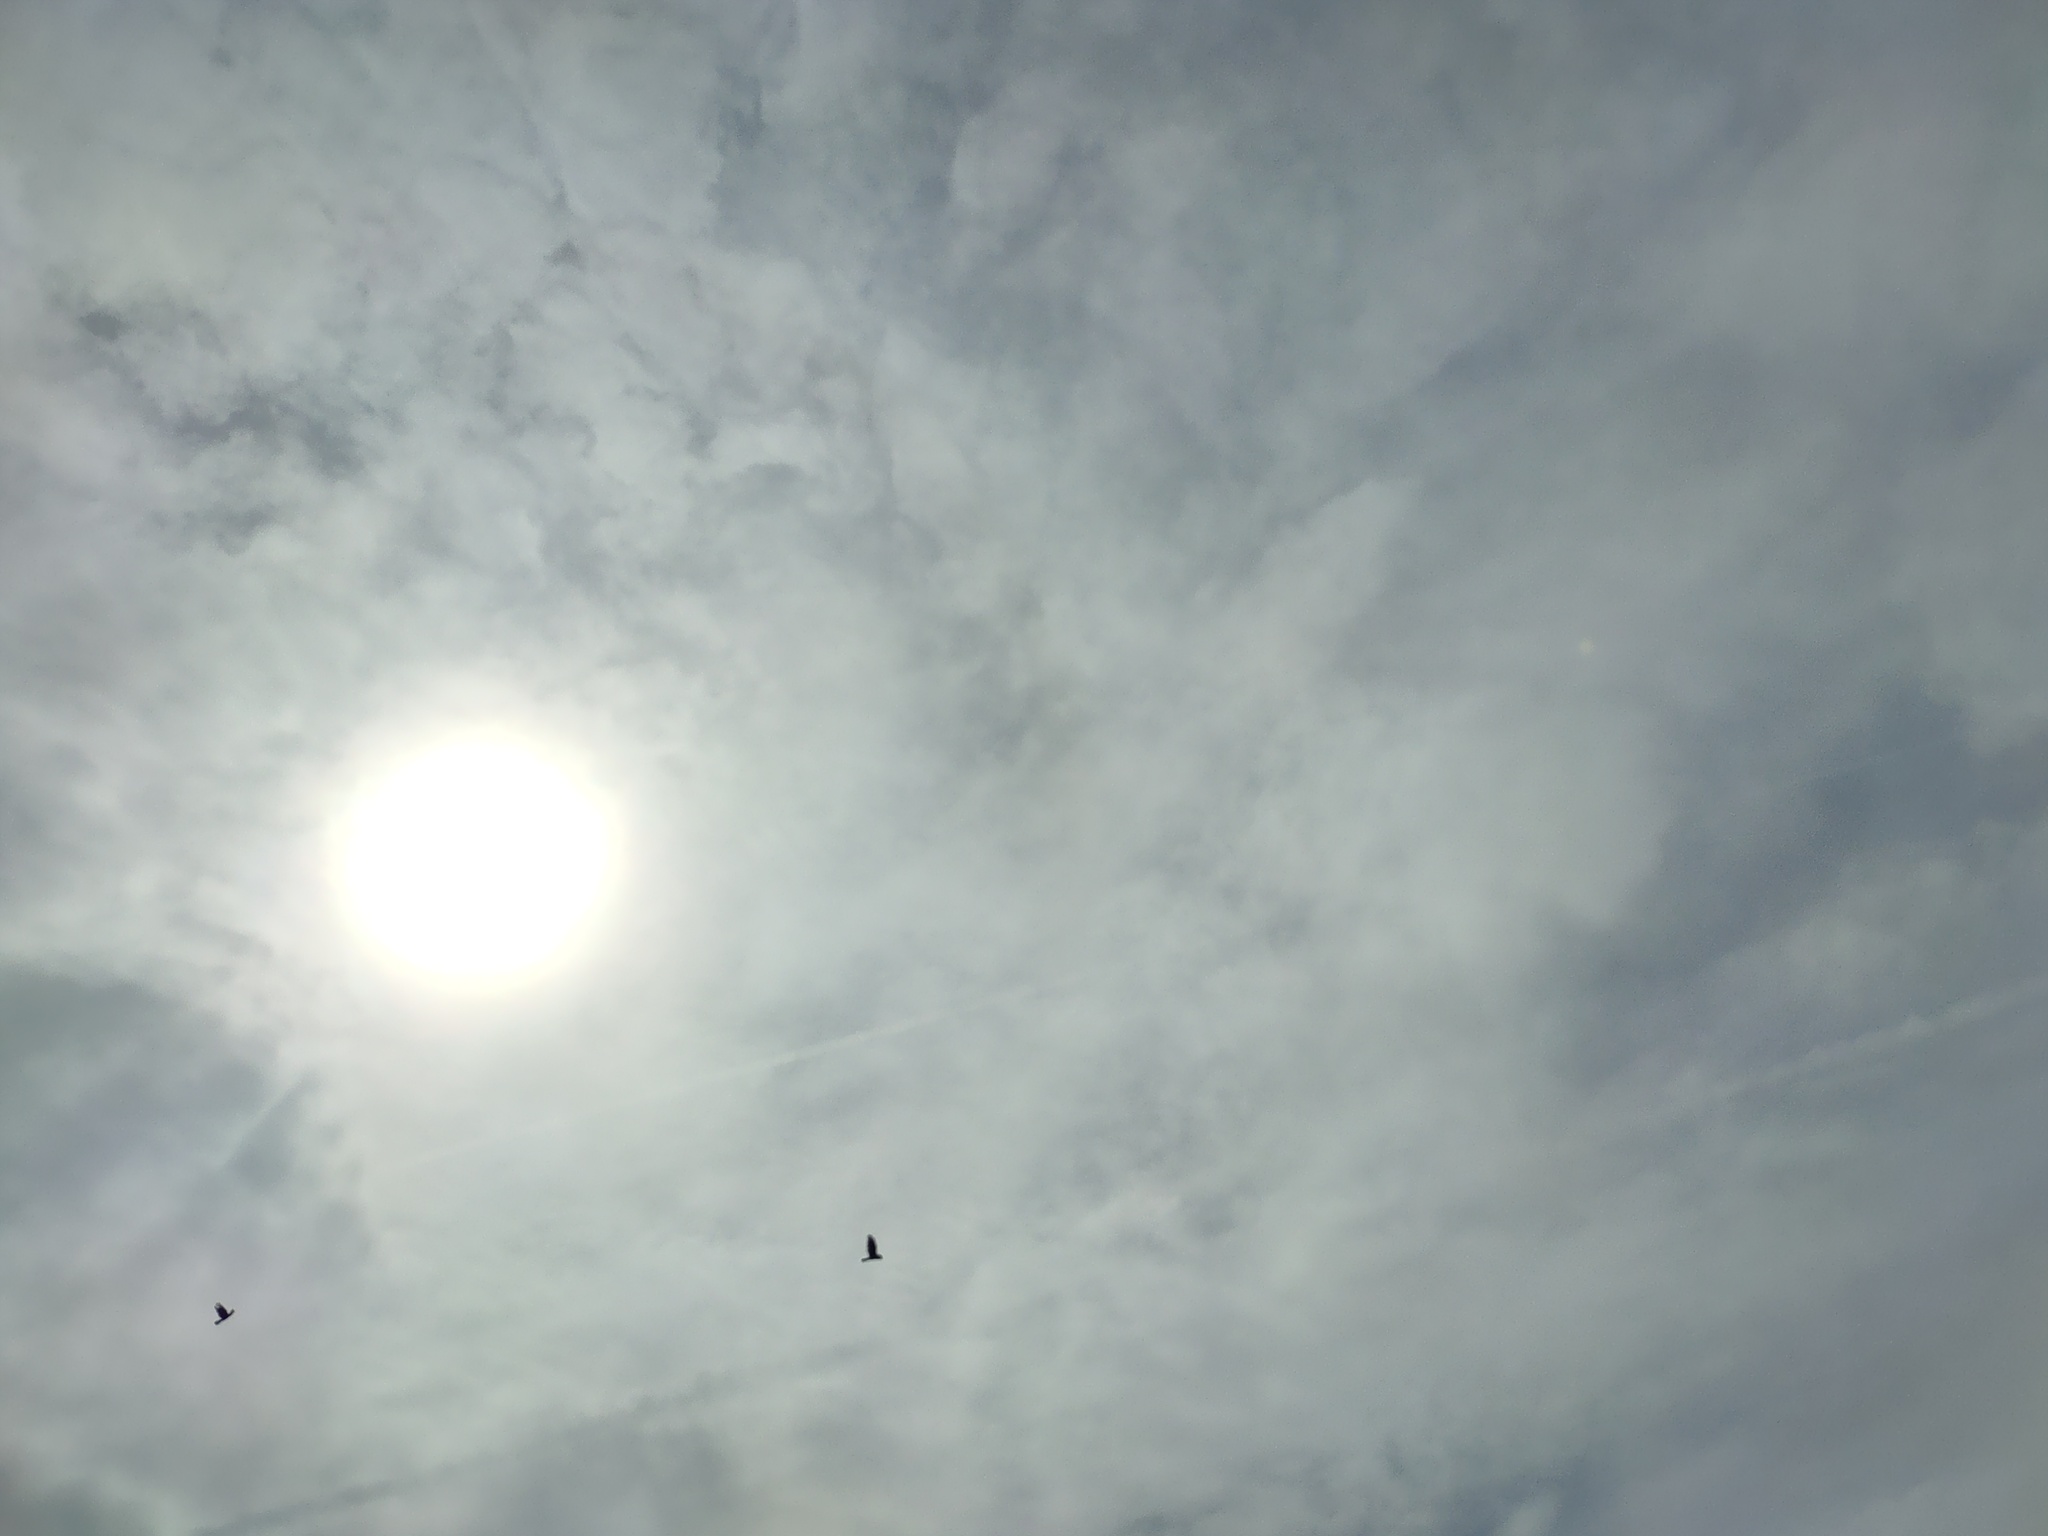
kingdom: Animalia
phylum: Chordata
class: Aves
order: Accipitriformes
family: Accipitridae
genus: Buteo
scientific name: Buteo buteo
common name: Common buzzard
